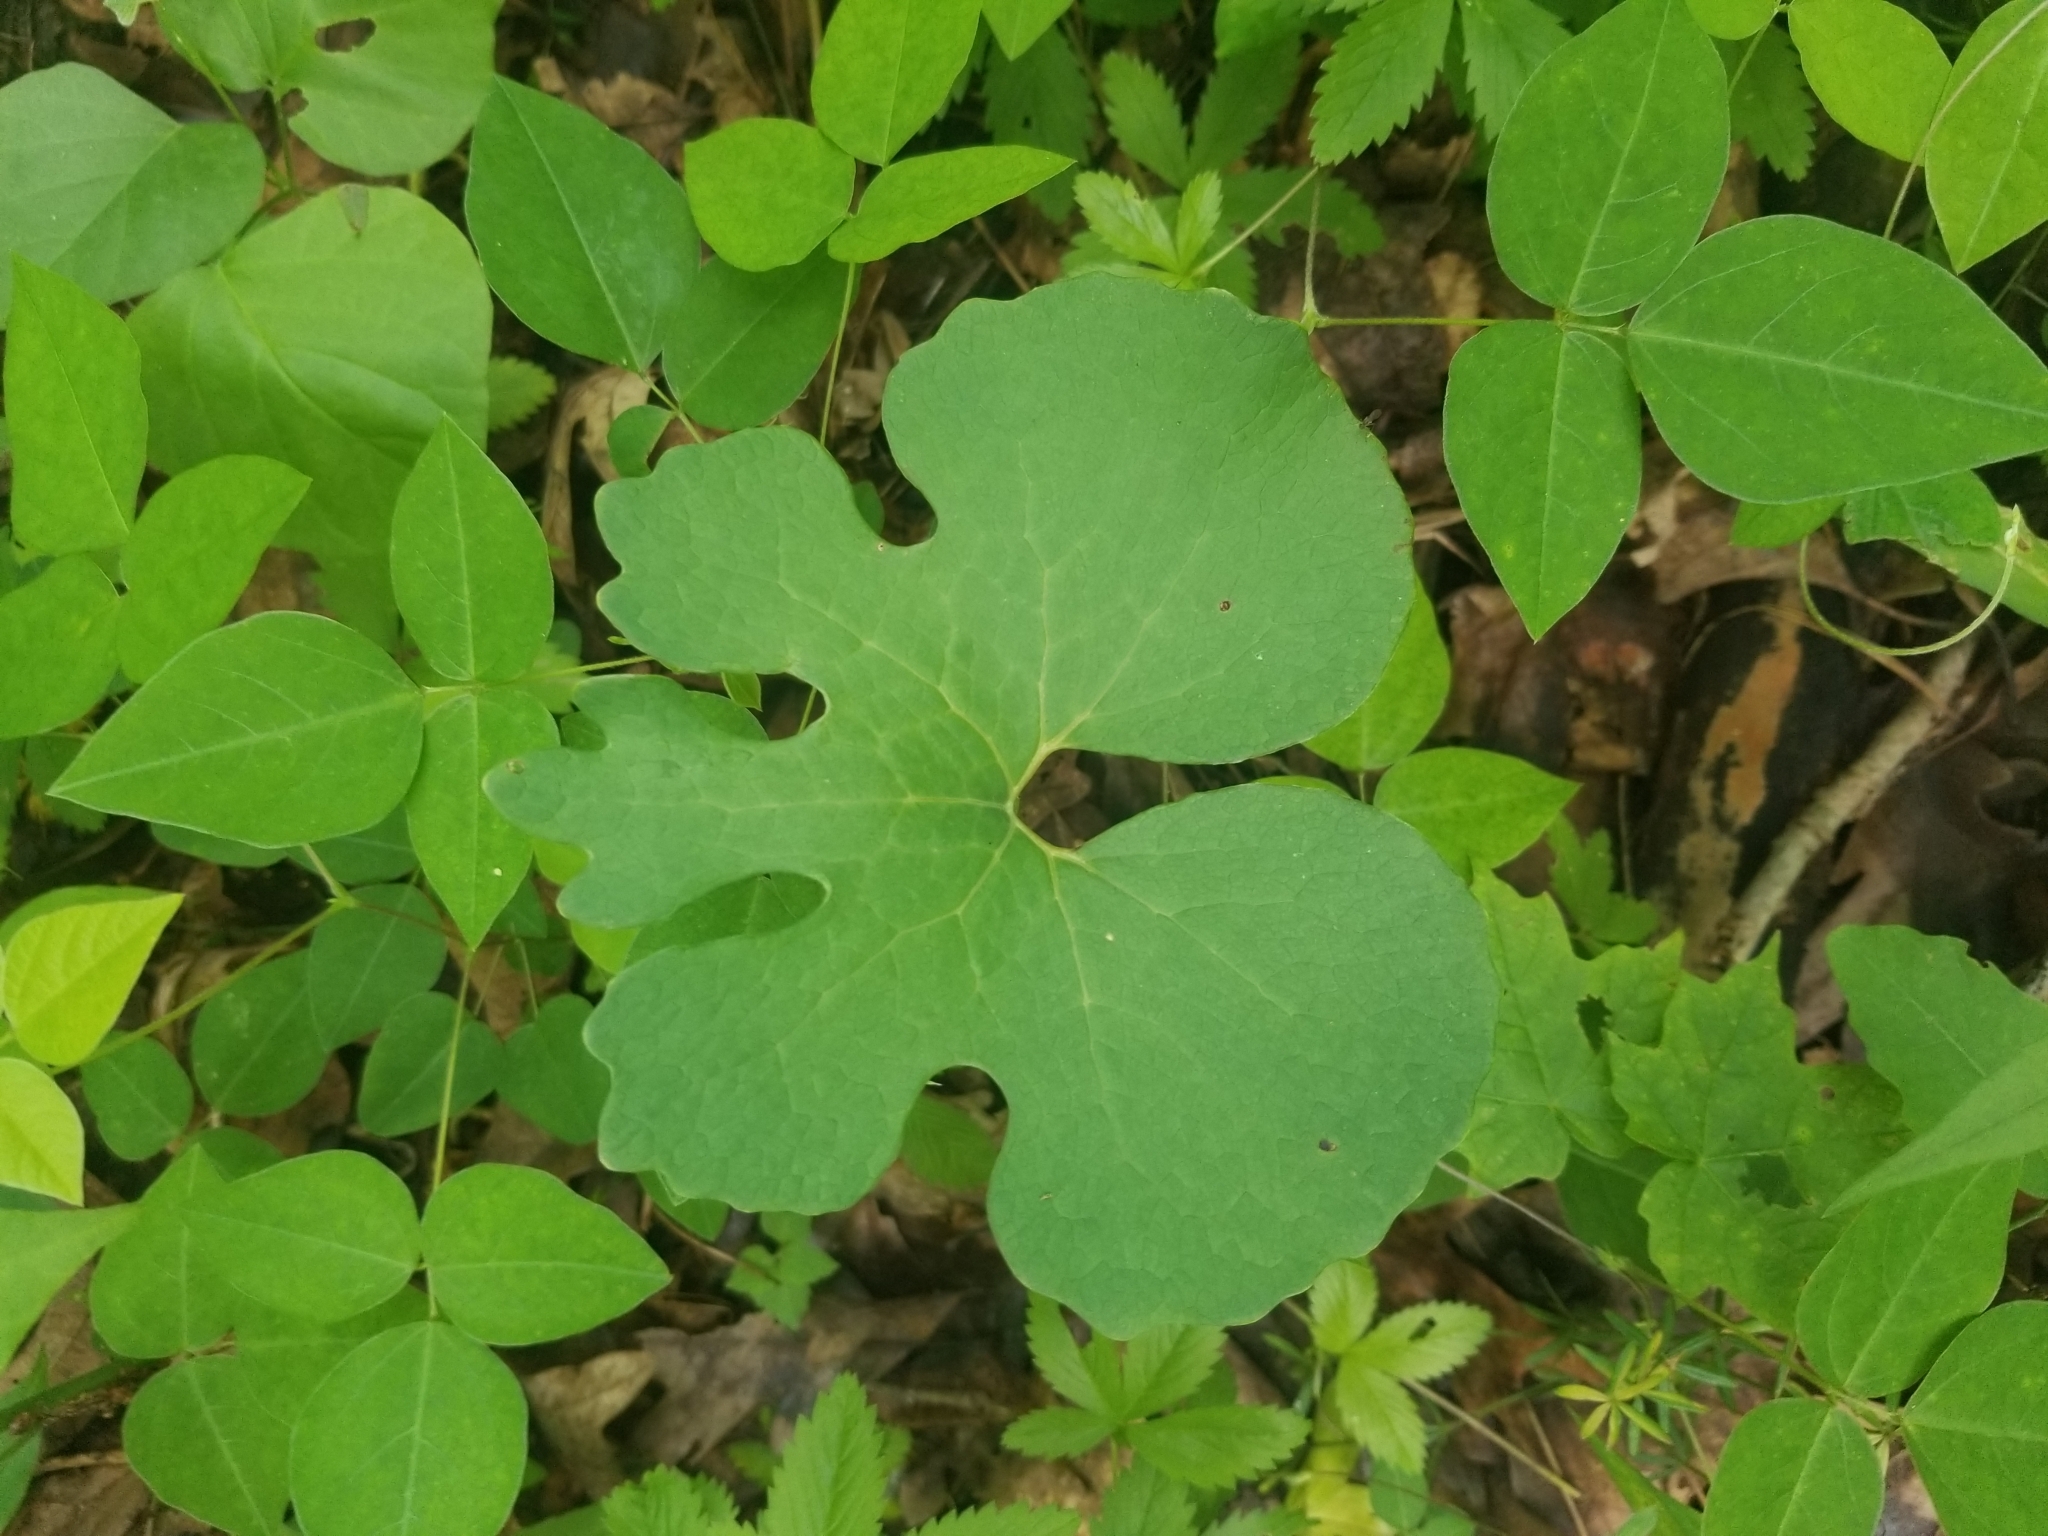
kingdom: Plantae
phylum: Tracheophyta
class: Magnoliopsida
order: Ranunculales
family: Papaveraceae
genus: Sanguinaria
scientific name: Sanguinaria canadensis
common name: Bloodroot
